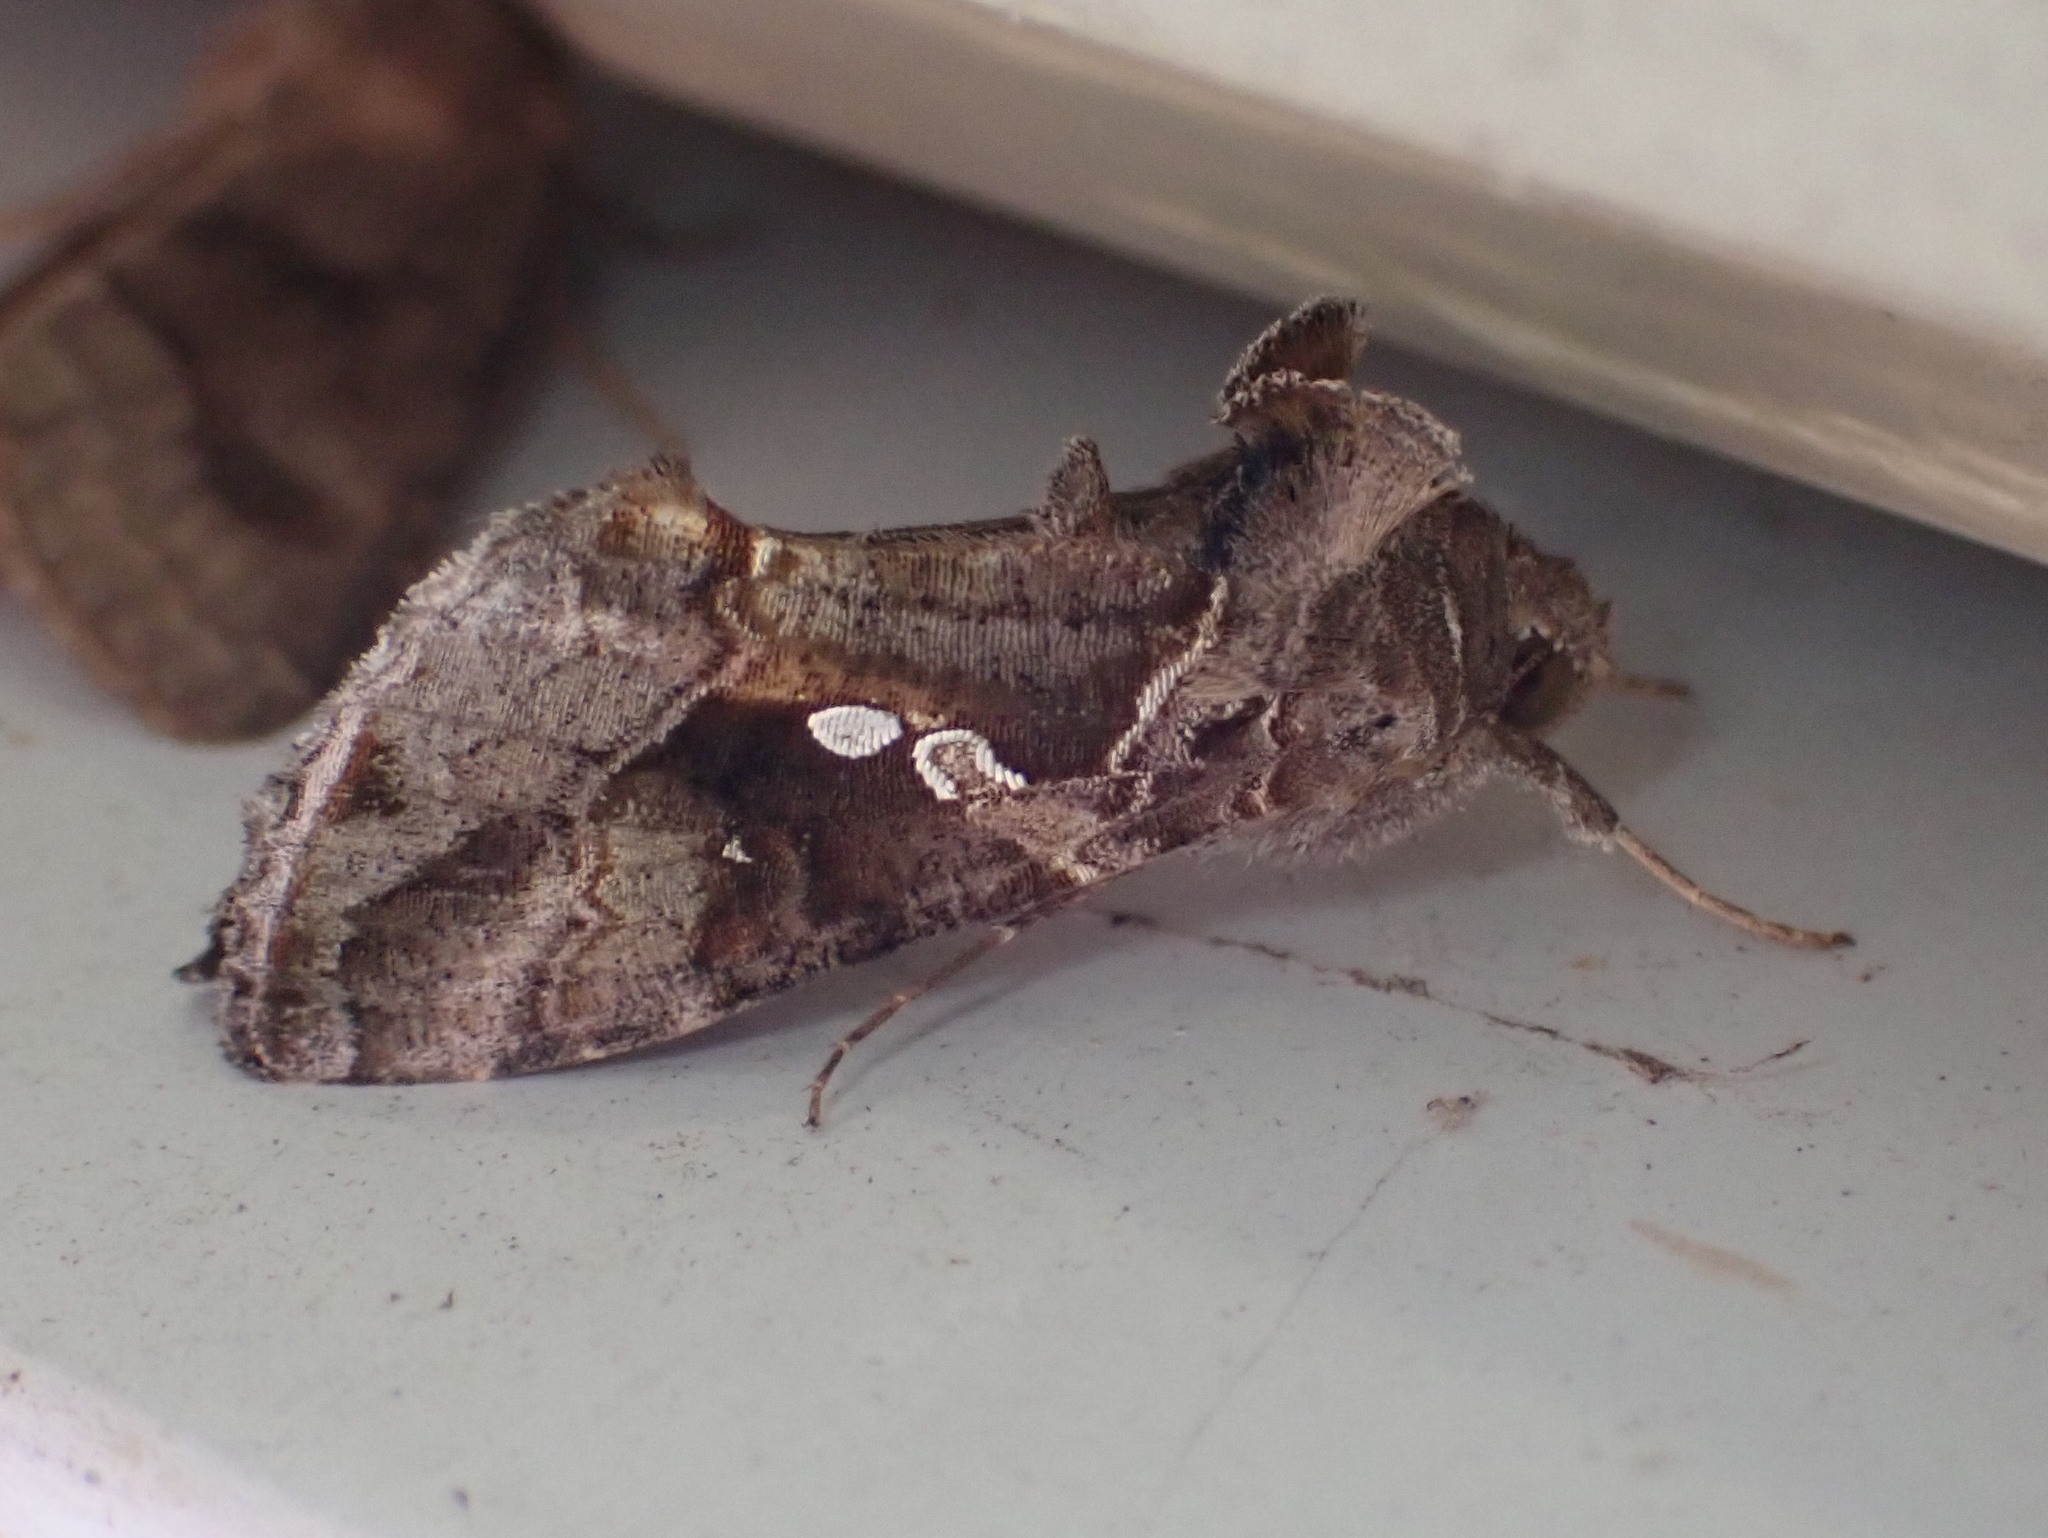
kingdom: Animalia
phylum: Arthropoda
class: Insecta
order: Lepidoptera
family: Noctuidae
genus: Chrysodeixis
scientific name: Chrysodeixis includens
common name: Cutworm moth
